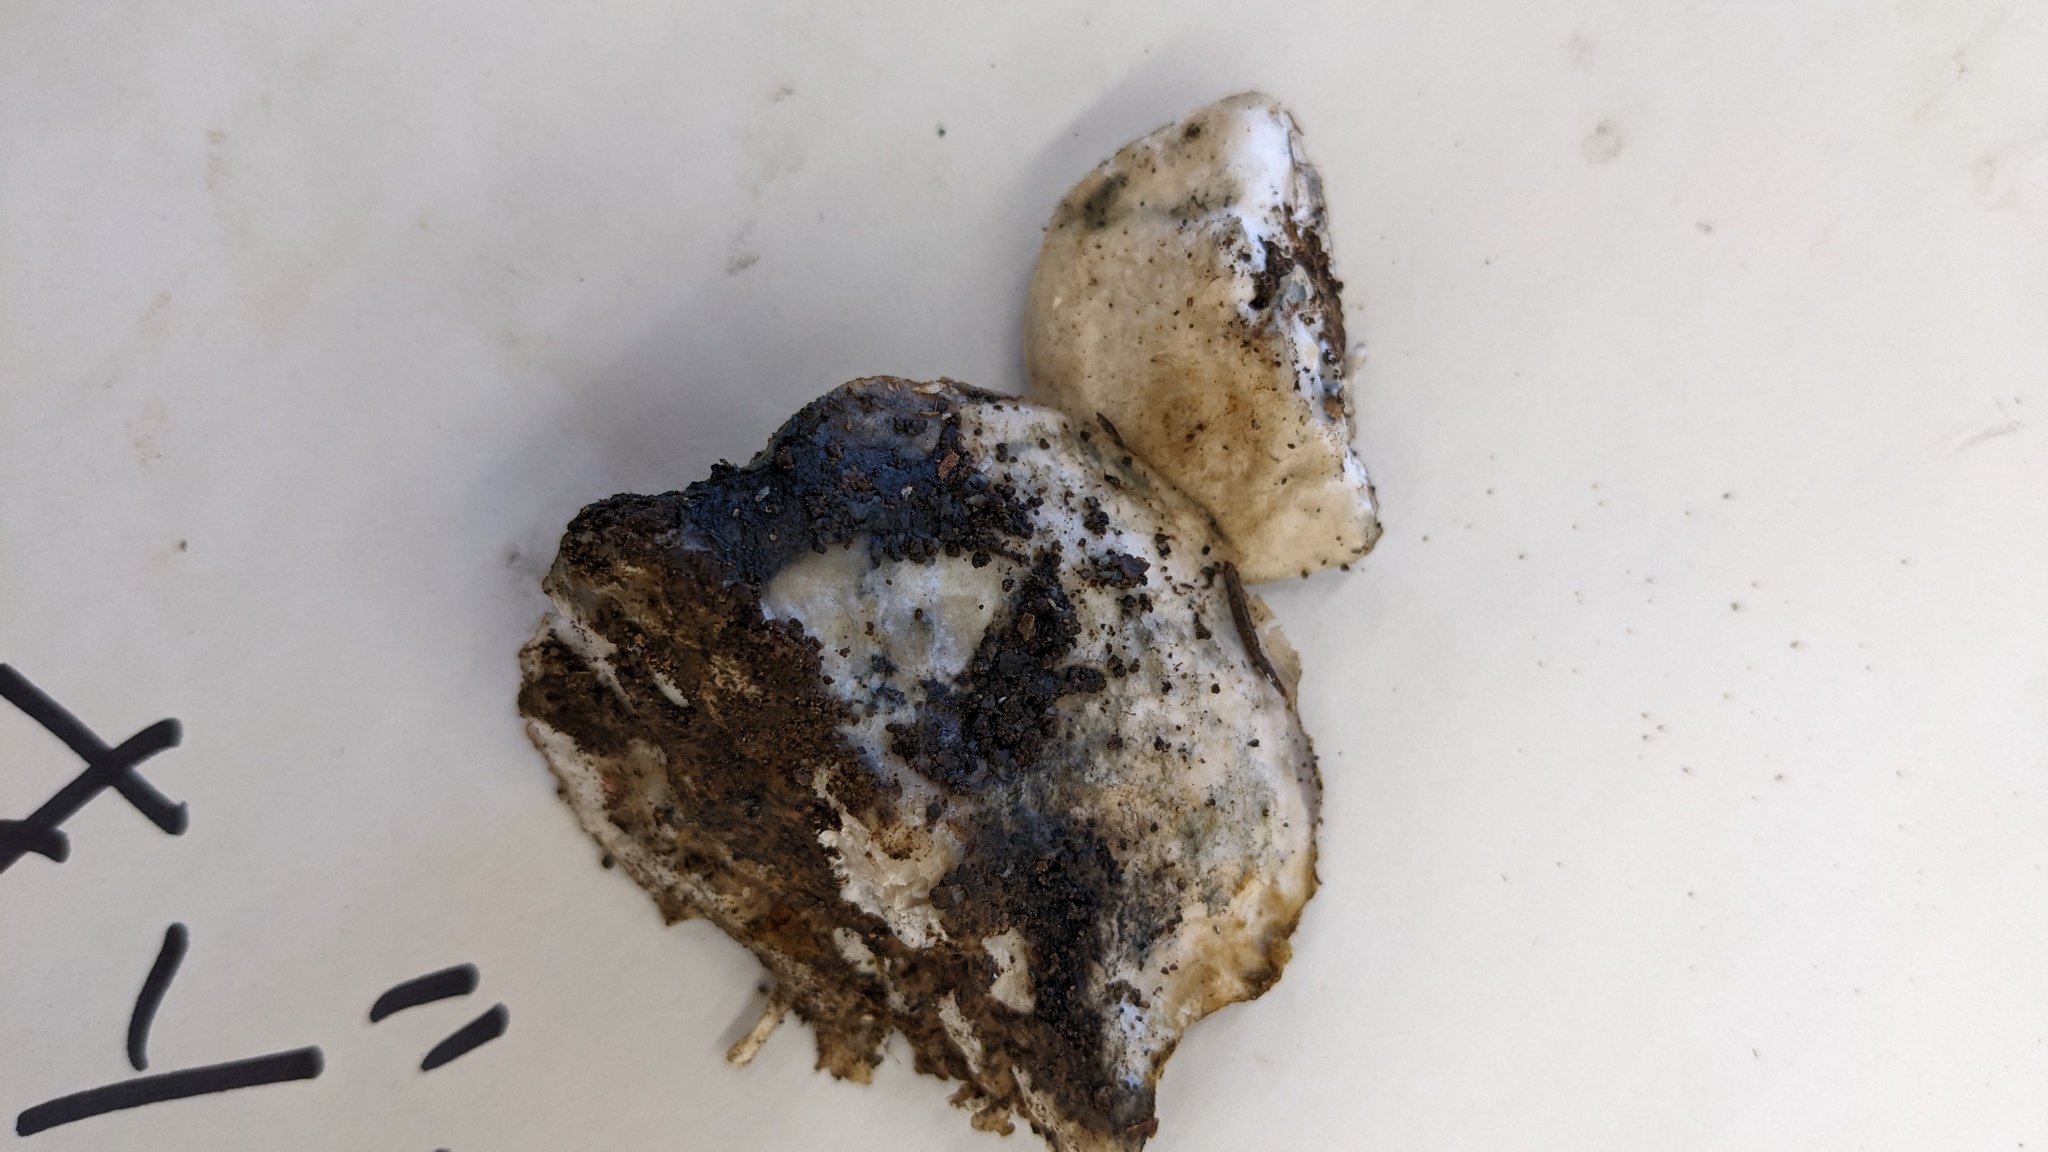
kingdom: Fungi
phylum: Basidiomycota
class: Agaricomycetes
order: Polyporales
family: Polyporaceae
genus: Cyanosporus
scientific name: Cyanosporus caesius
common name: Blue cheese polypore
